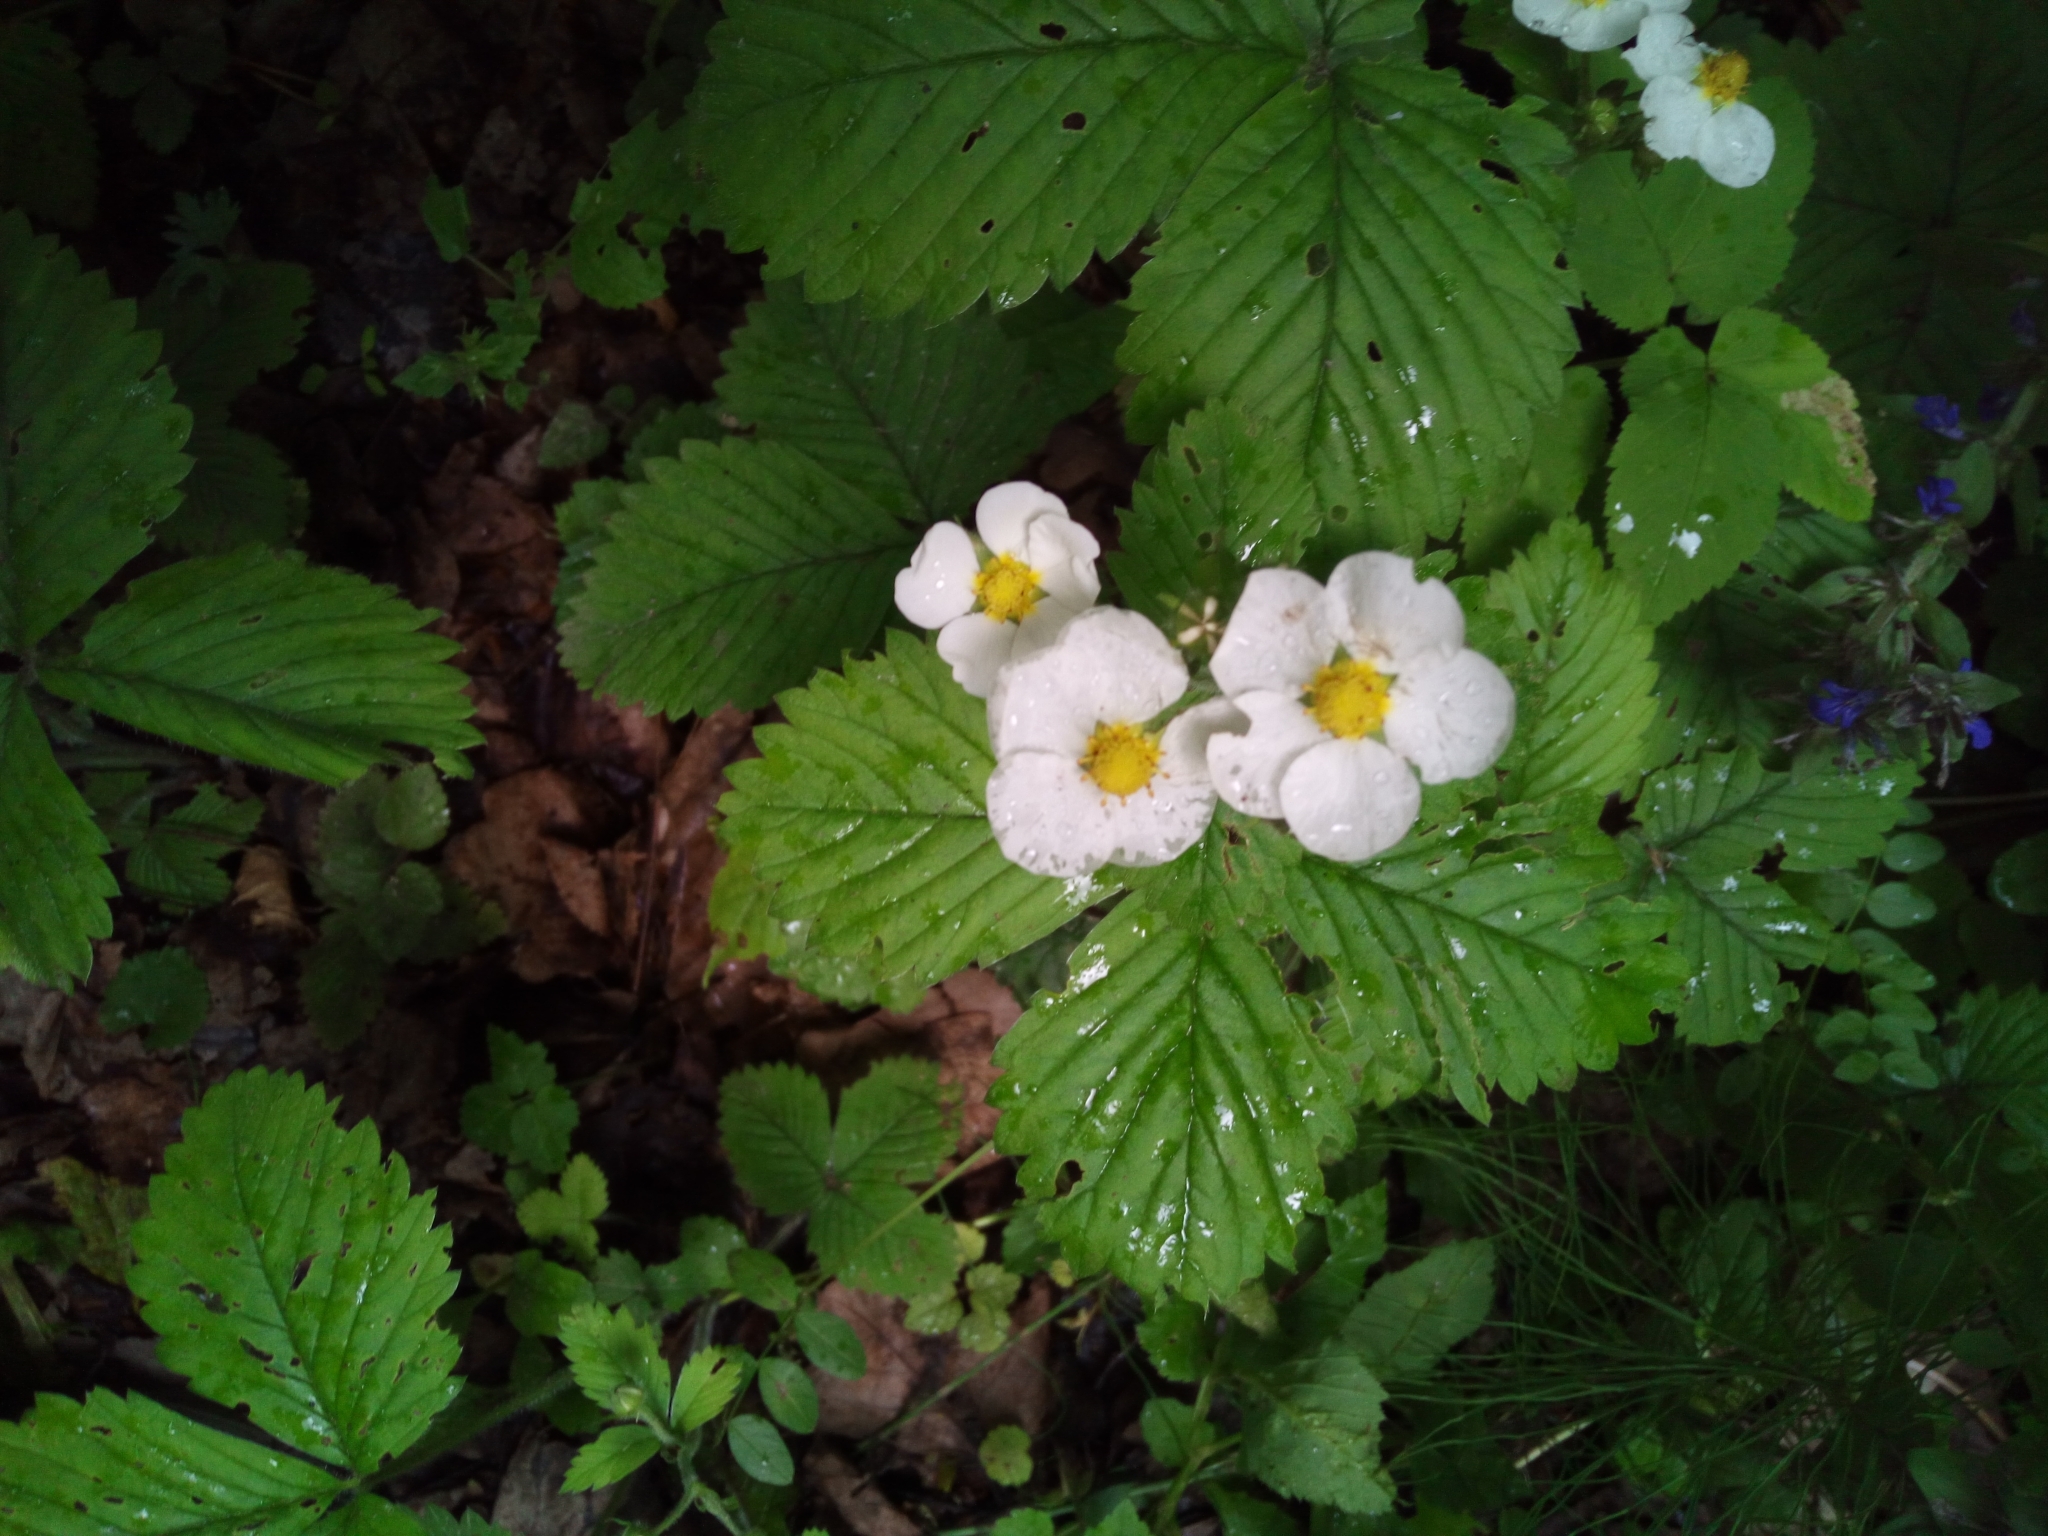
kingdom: Plantae
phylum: Tracheophyta
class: Magnoliopsida
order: Rosales
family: Rosaceae
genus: Fragaria
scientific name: Fragaria moschata
